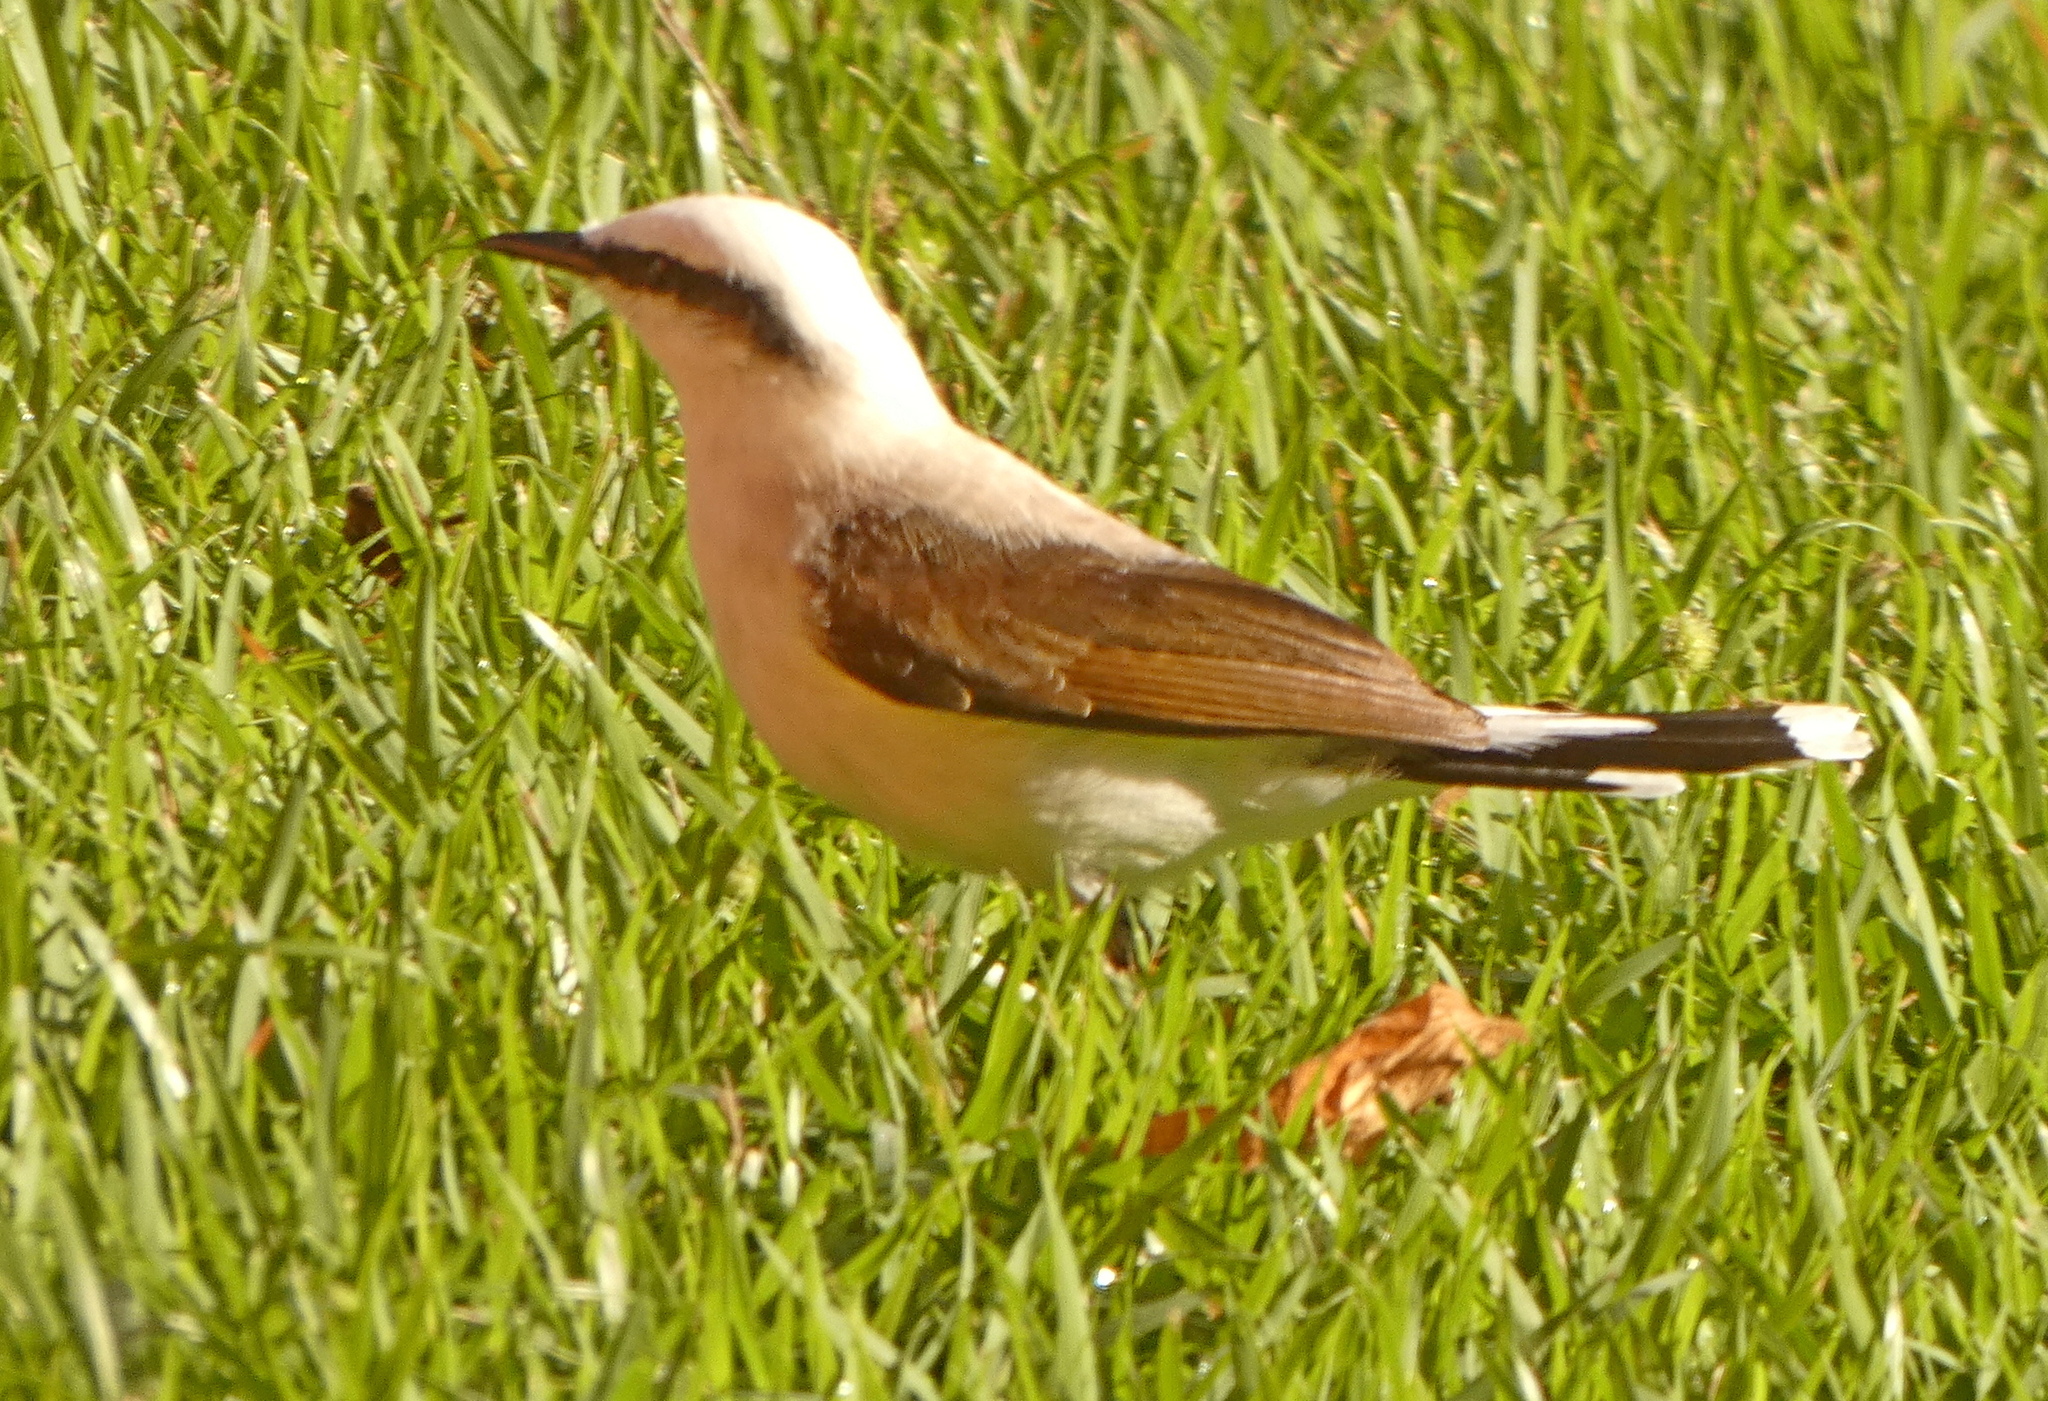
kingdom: Animalia
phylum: Chordata
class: Aves
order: Passeriformes
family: Tyrannidae
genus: Fluvicola
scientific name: Fluvicola nengeta
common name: Masked water tyrant
